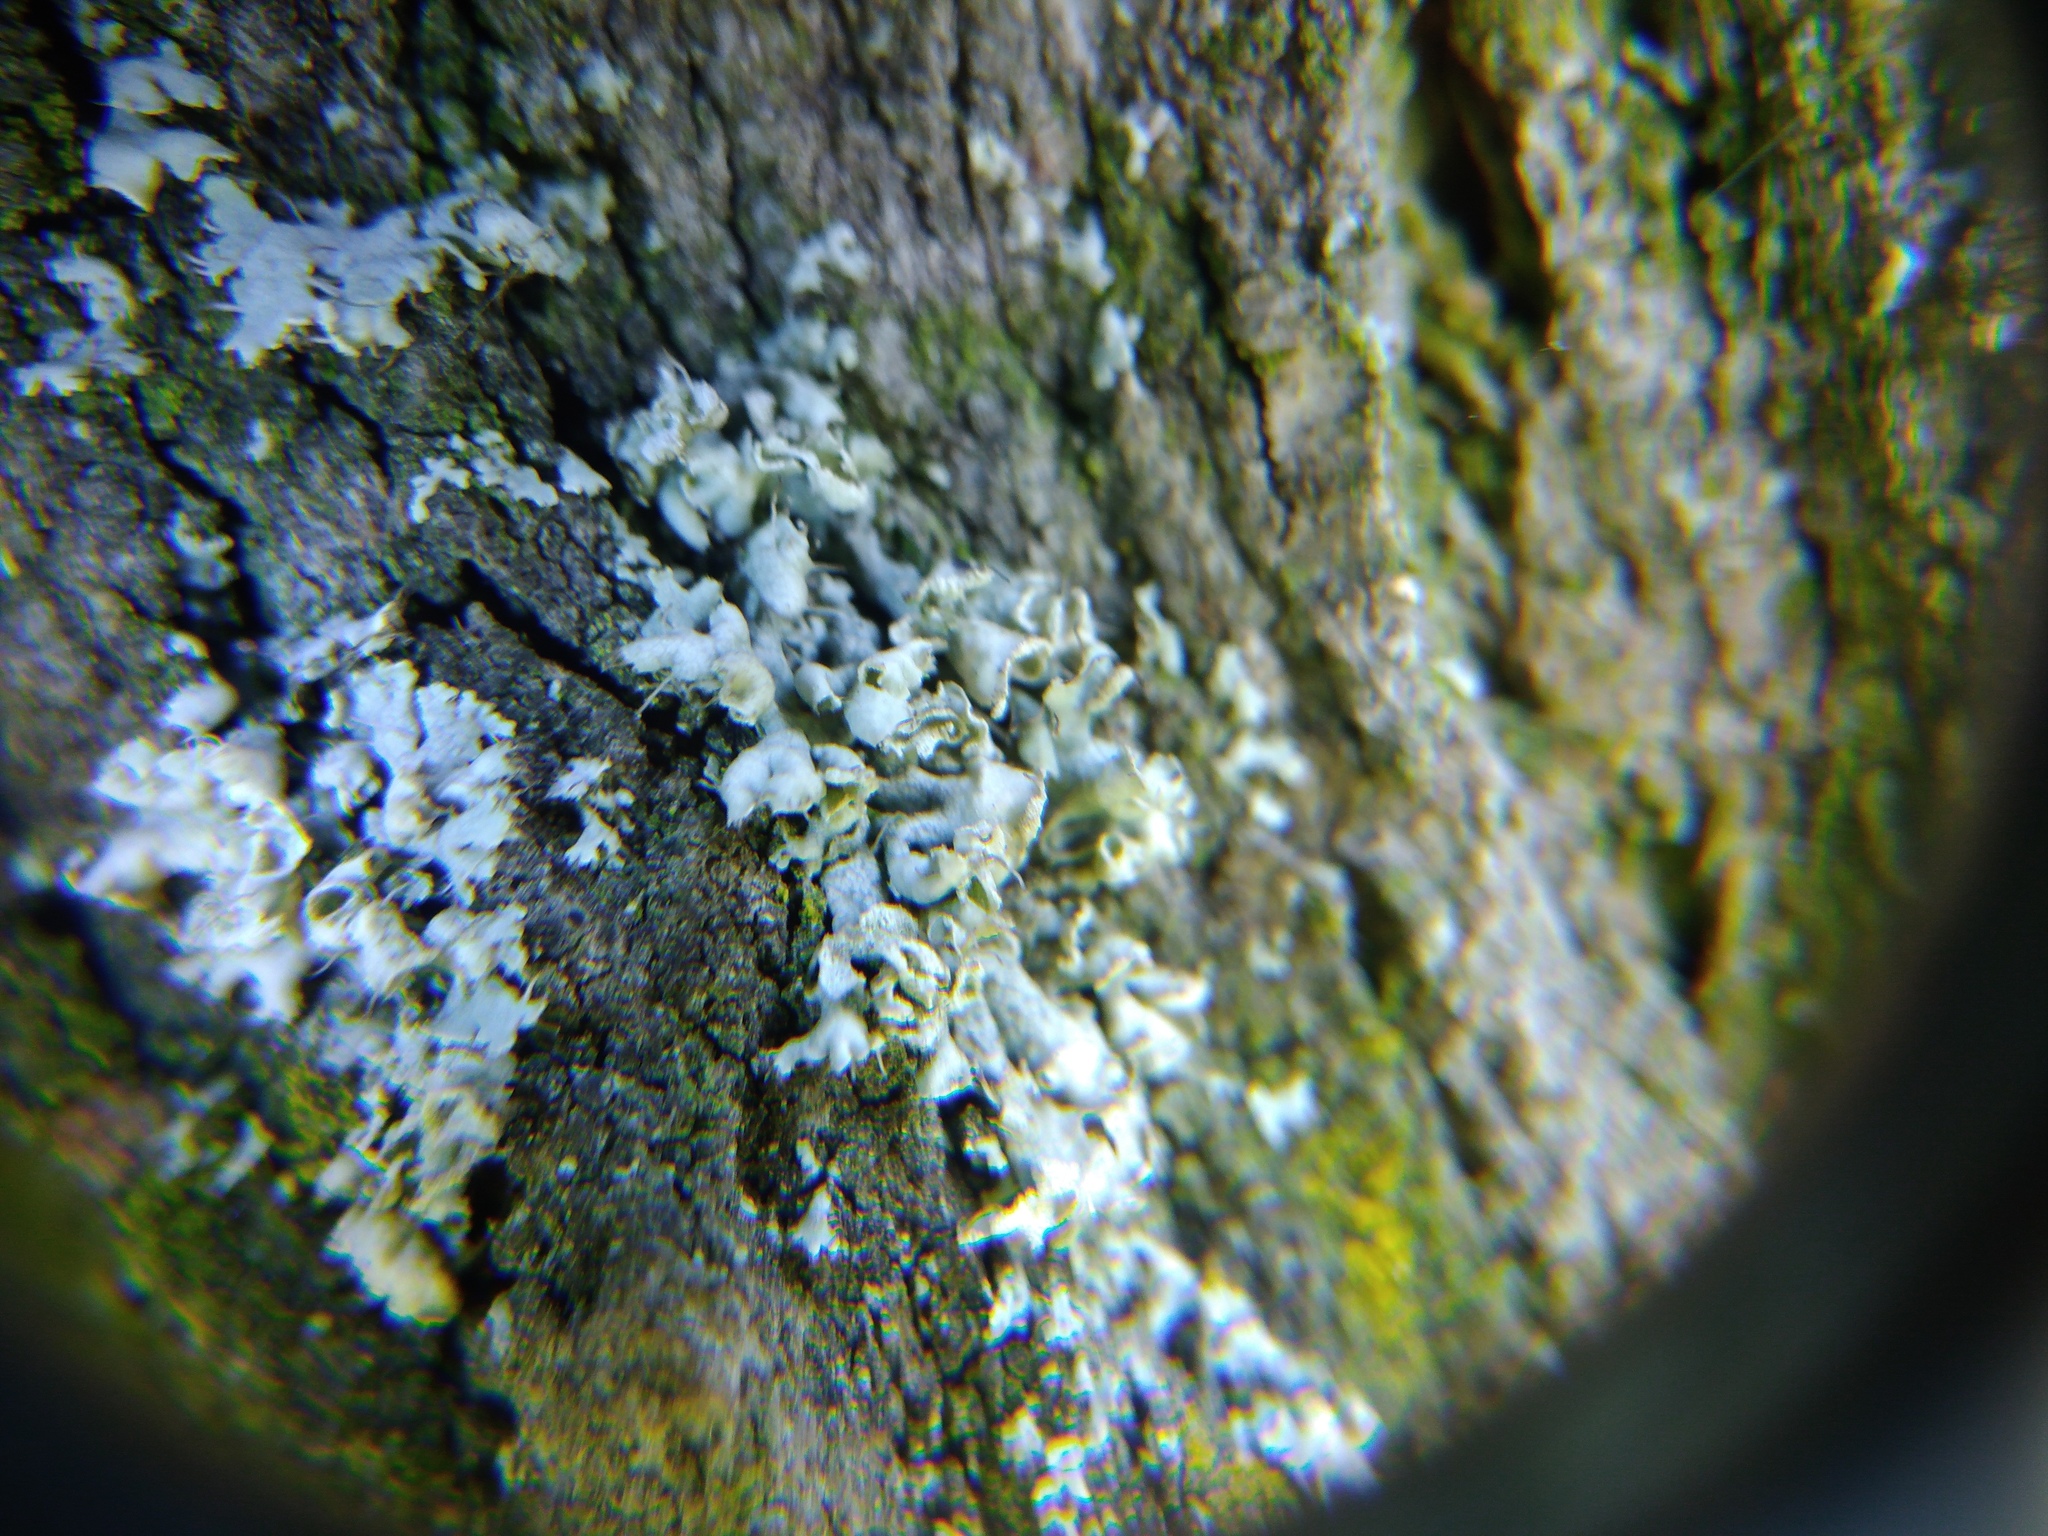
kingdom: Fungi
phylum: Ascomycota
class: Lecanoromycetes
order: Caliciales
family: Physciaceae
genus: Physcia
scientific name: Physcia adscendens
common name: Hooded rosette lichen
